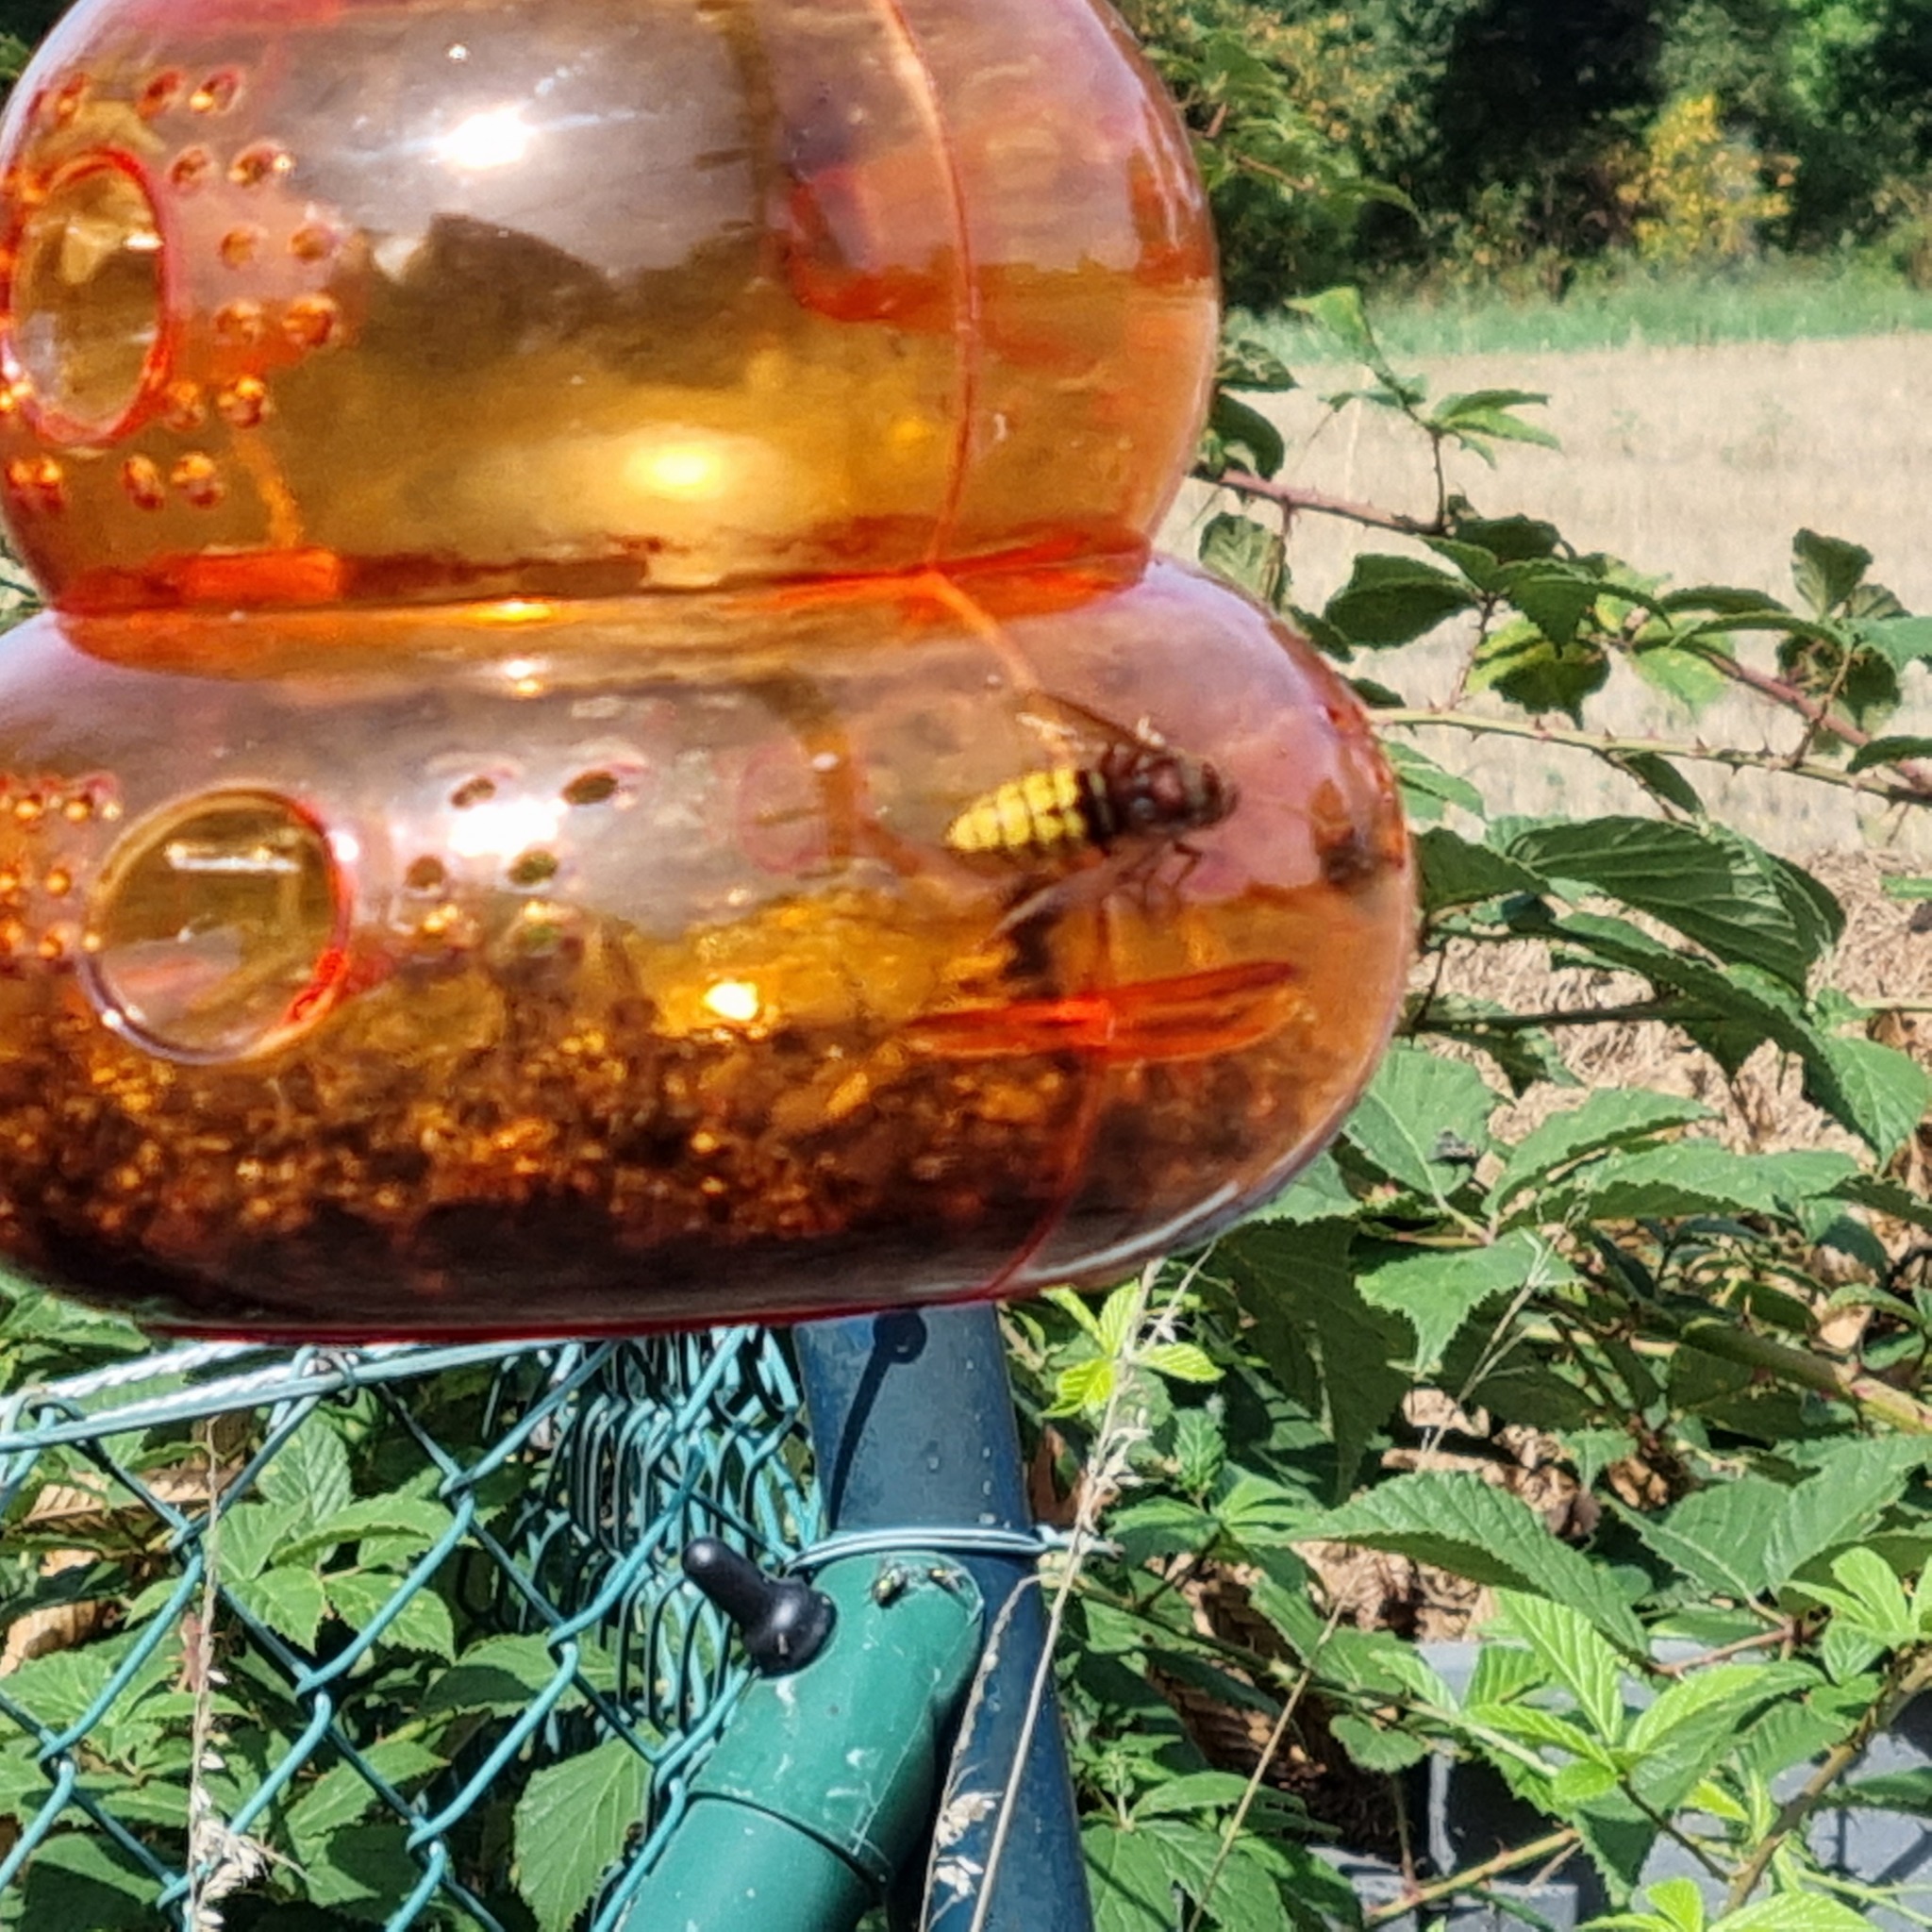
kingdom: Animalia
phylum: Arthropoda
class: Insecta
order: Hymenoptera
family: Vespidae
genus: Vespa
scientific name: Vespa crabro
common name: Hornet
